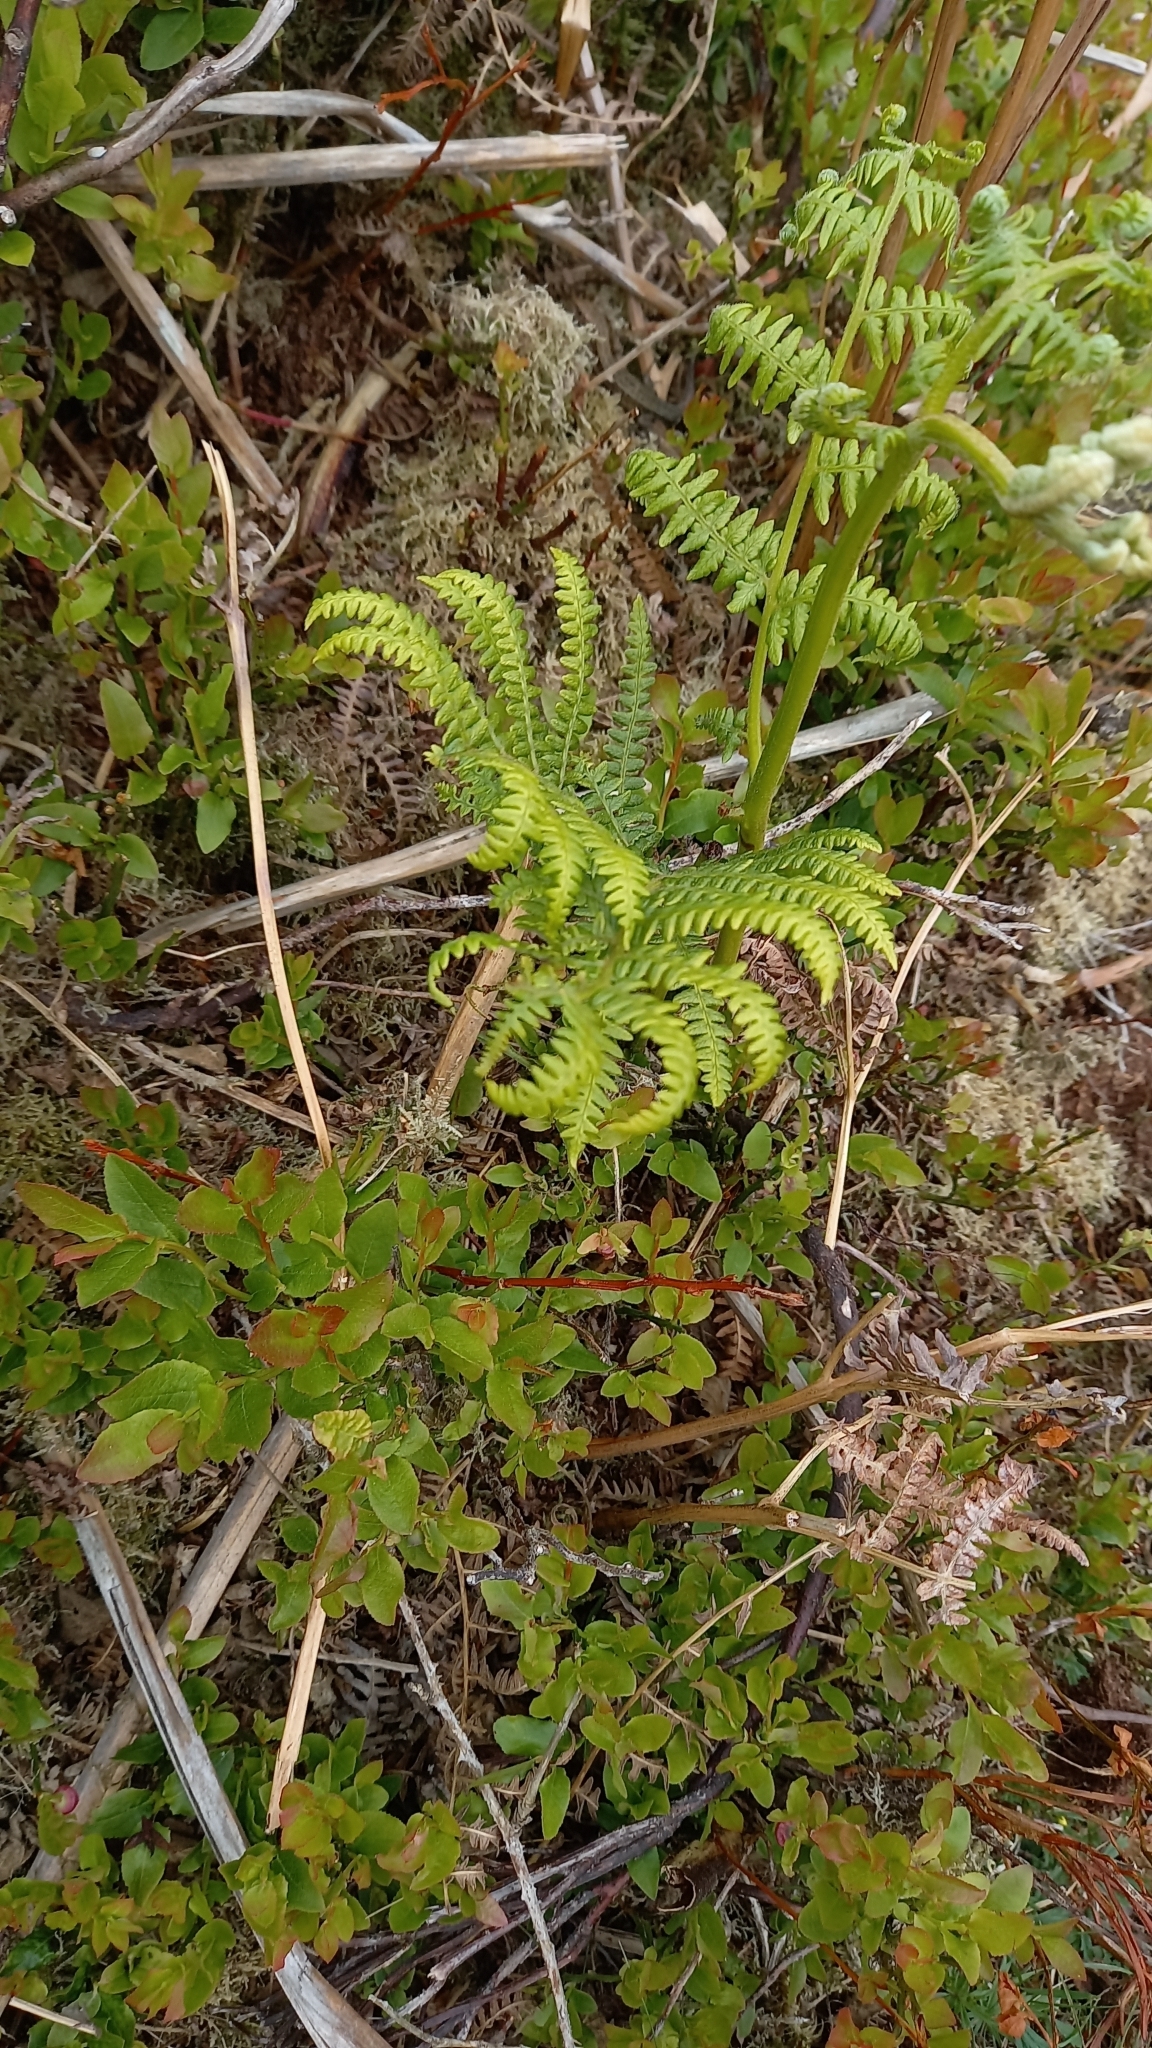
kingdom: Plantae
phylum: Tracheophyta
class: Polypodiopsida
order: Polypodiales
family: Dennstaedtiaceae
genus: Pteridium
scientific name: Pteridium aquilinum
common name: Bracken
